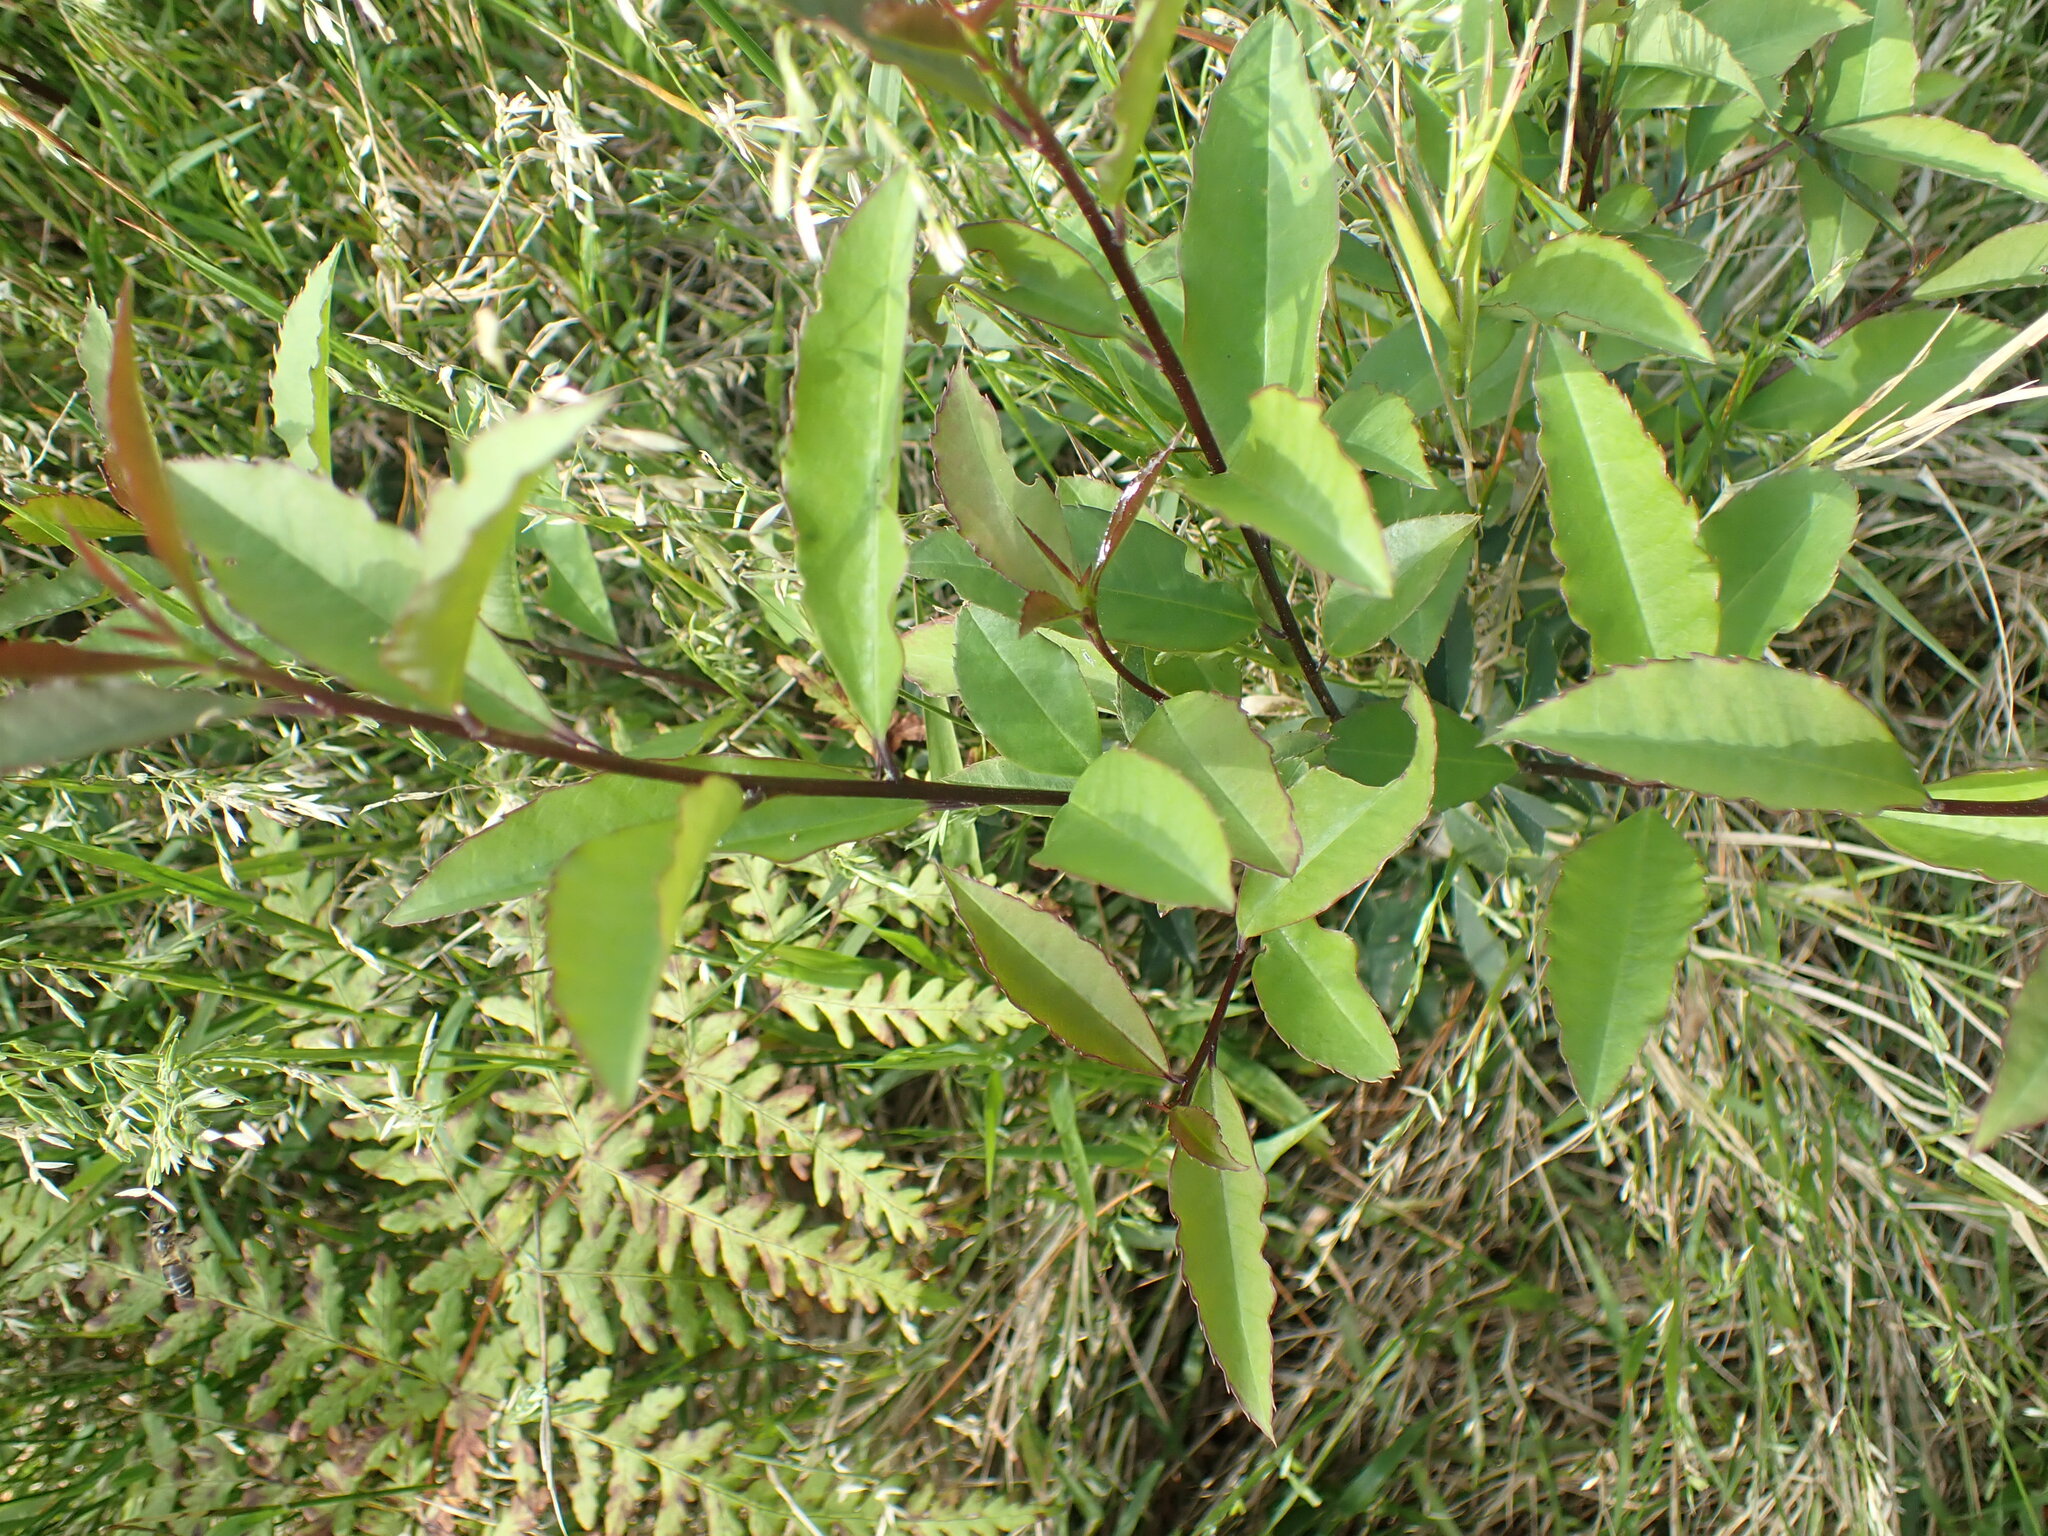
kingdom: Plantae
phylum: Tracheophyta
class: Magnoliopsida
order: Aquifoliales
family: Aquifoliaceae
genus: Ilex
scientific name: Ilex mitis
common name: African holly
